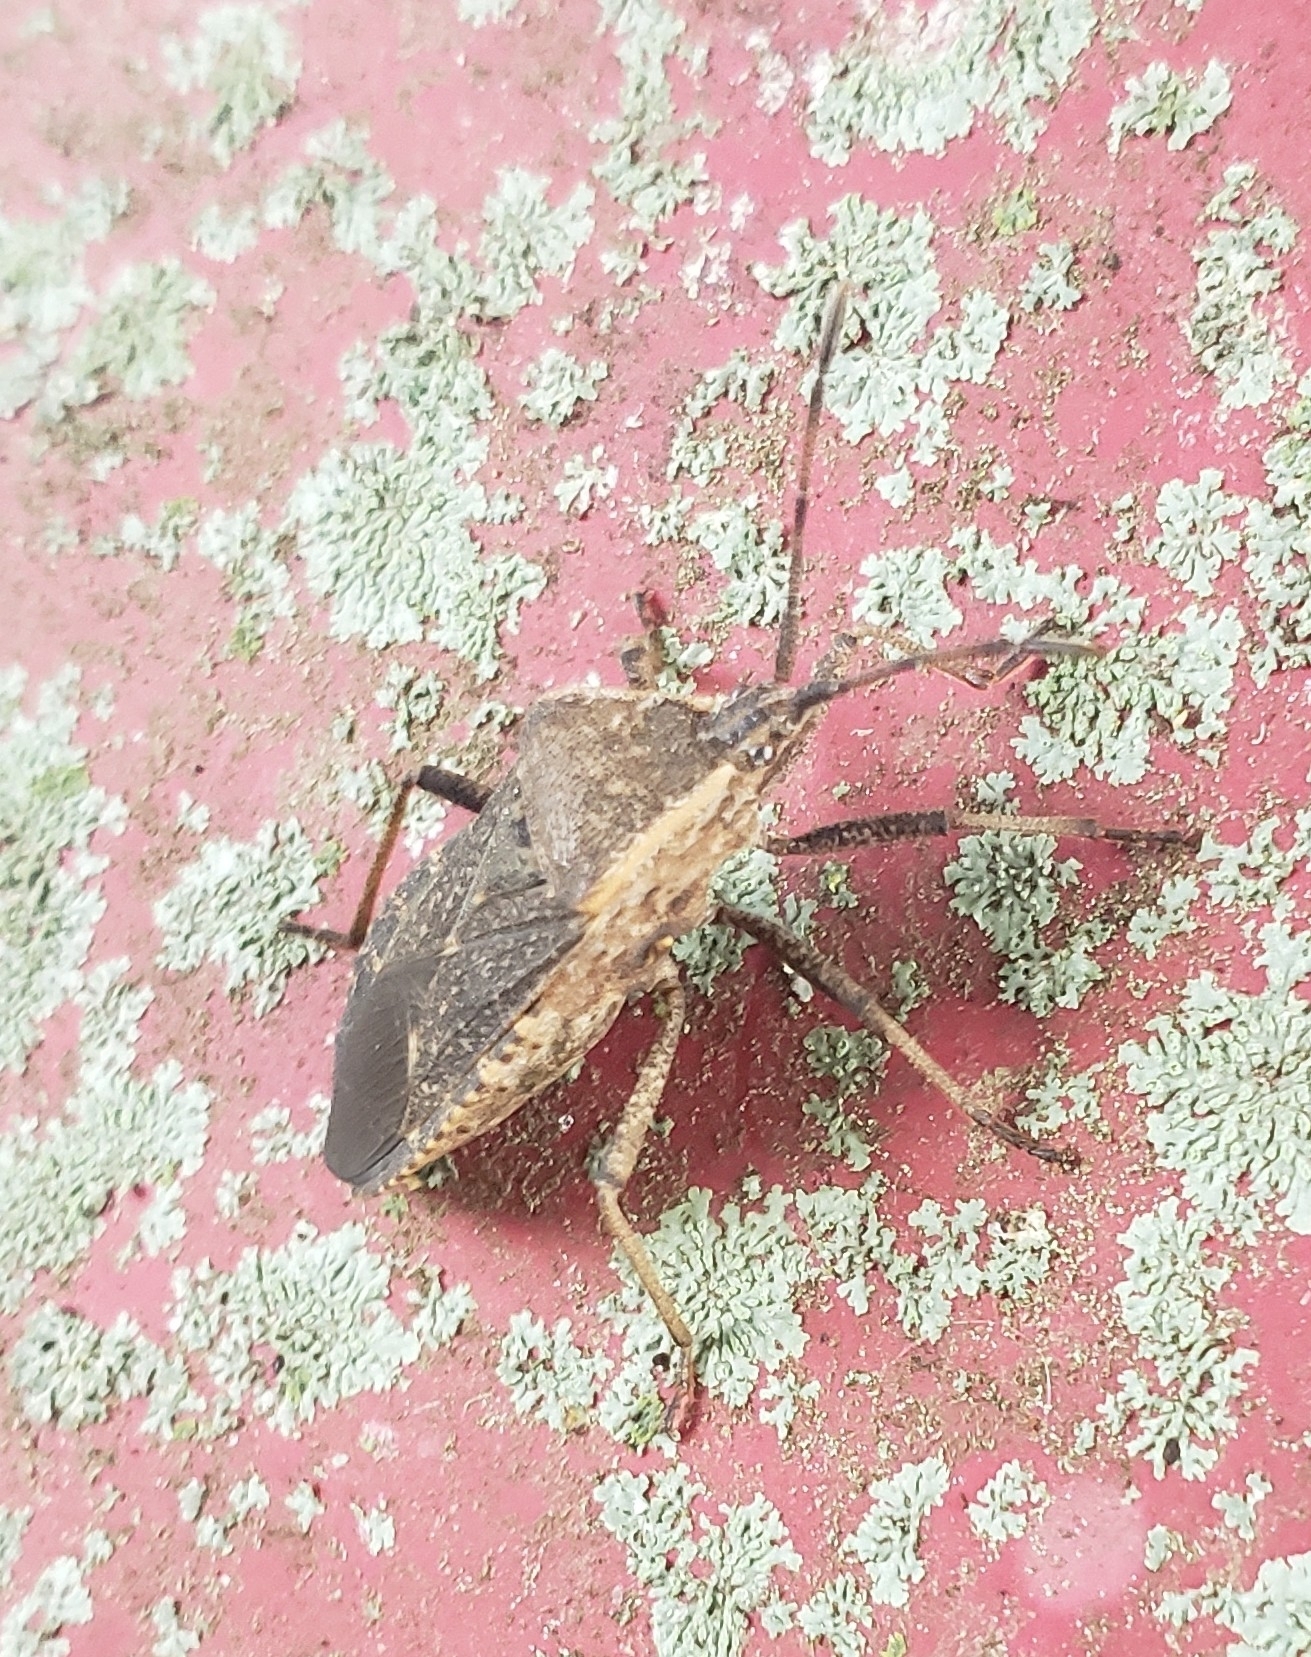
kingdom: Animalia
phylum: Arthropoda
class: Insecta
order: Hemiptera
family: Coreidae
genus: Anasa
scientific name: Anasa tristis
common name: Squash bug
